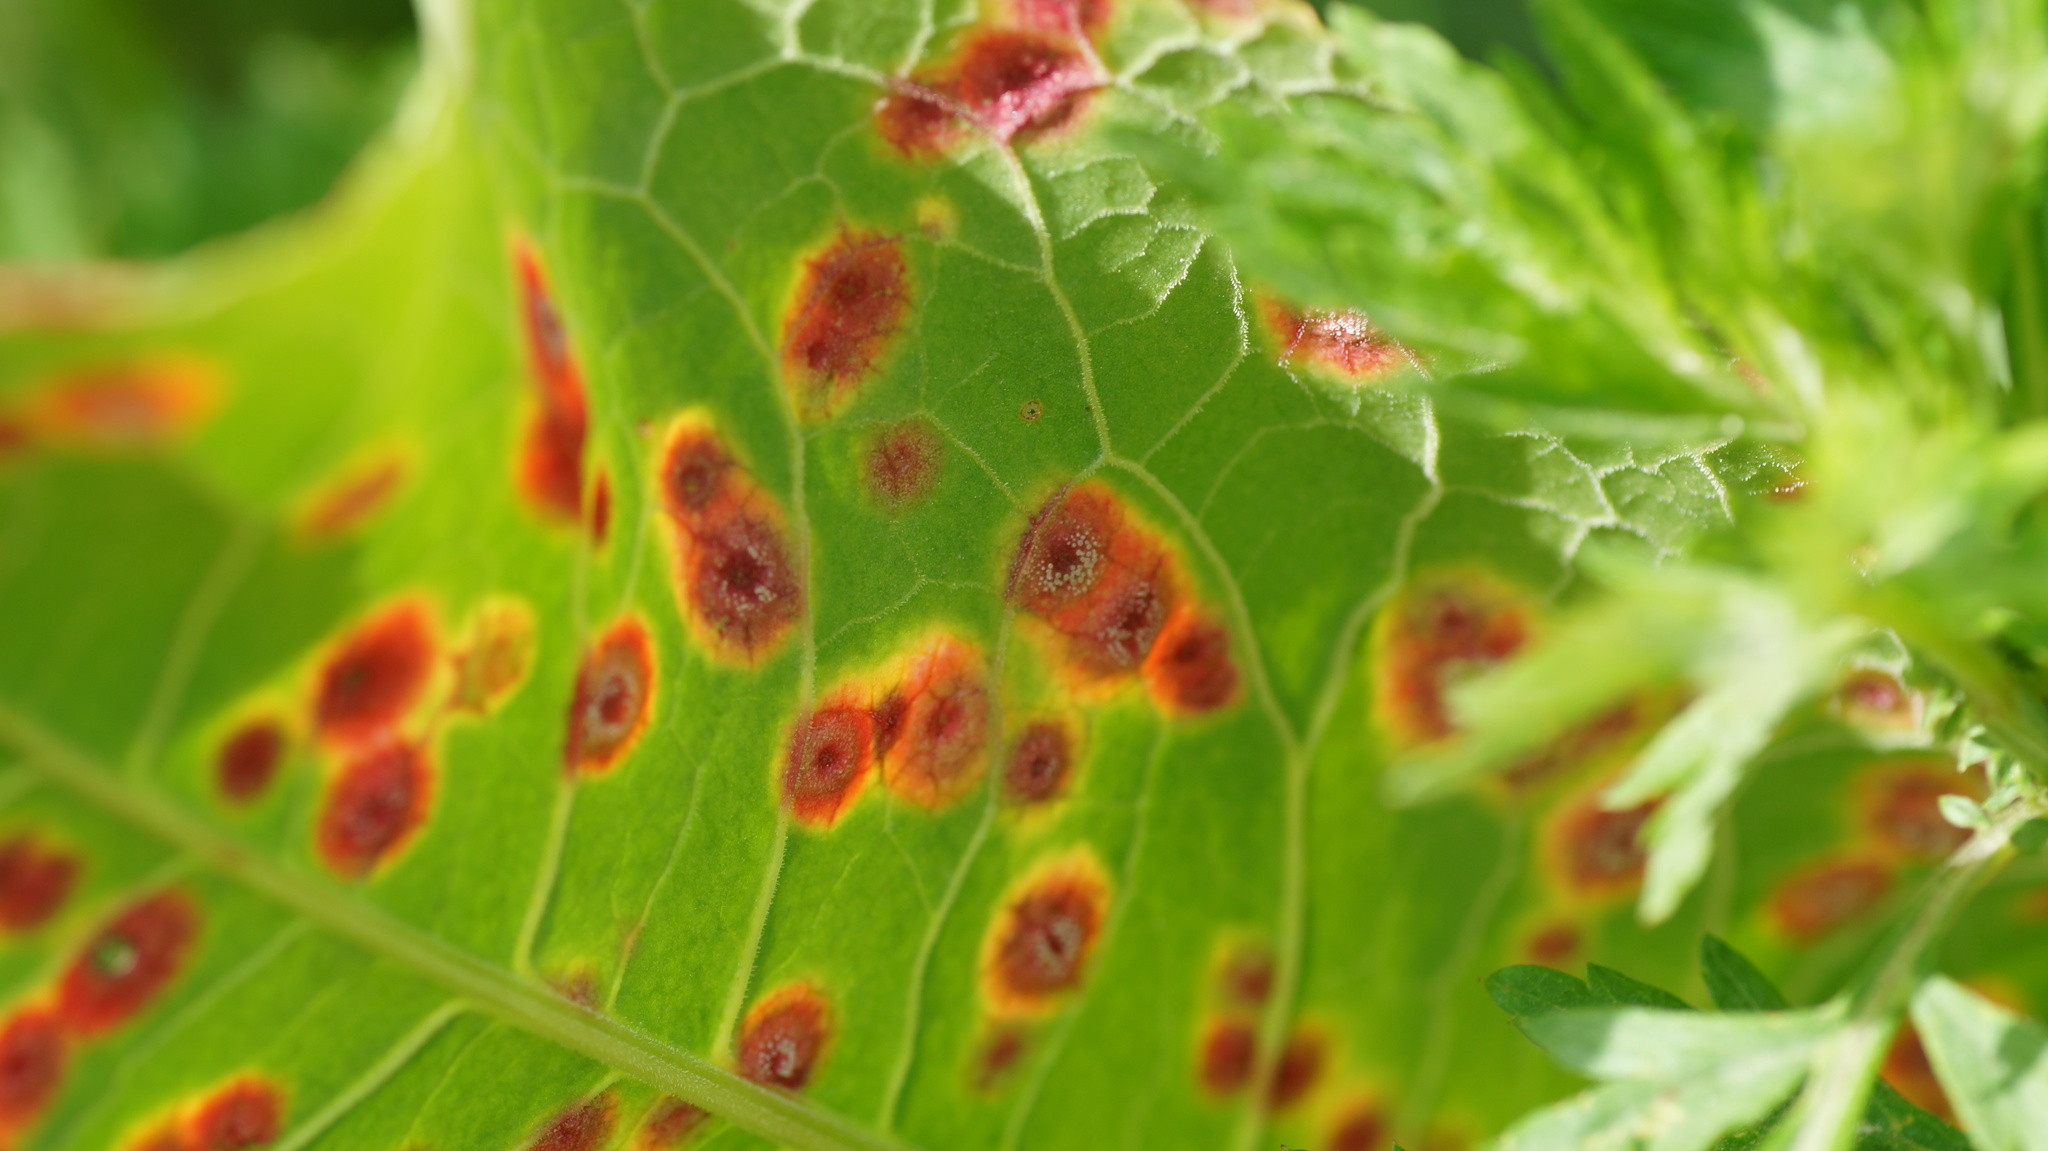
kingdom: Fungi
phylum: Basidiomycota
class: Pucciniomycetes
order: Pucciniales
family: Pucciniaceae
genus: Puccinia
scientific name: Puccinia phragmitis
